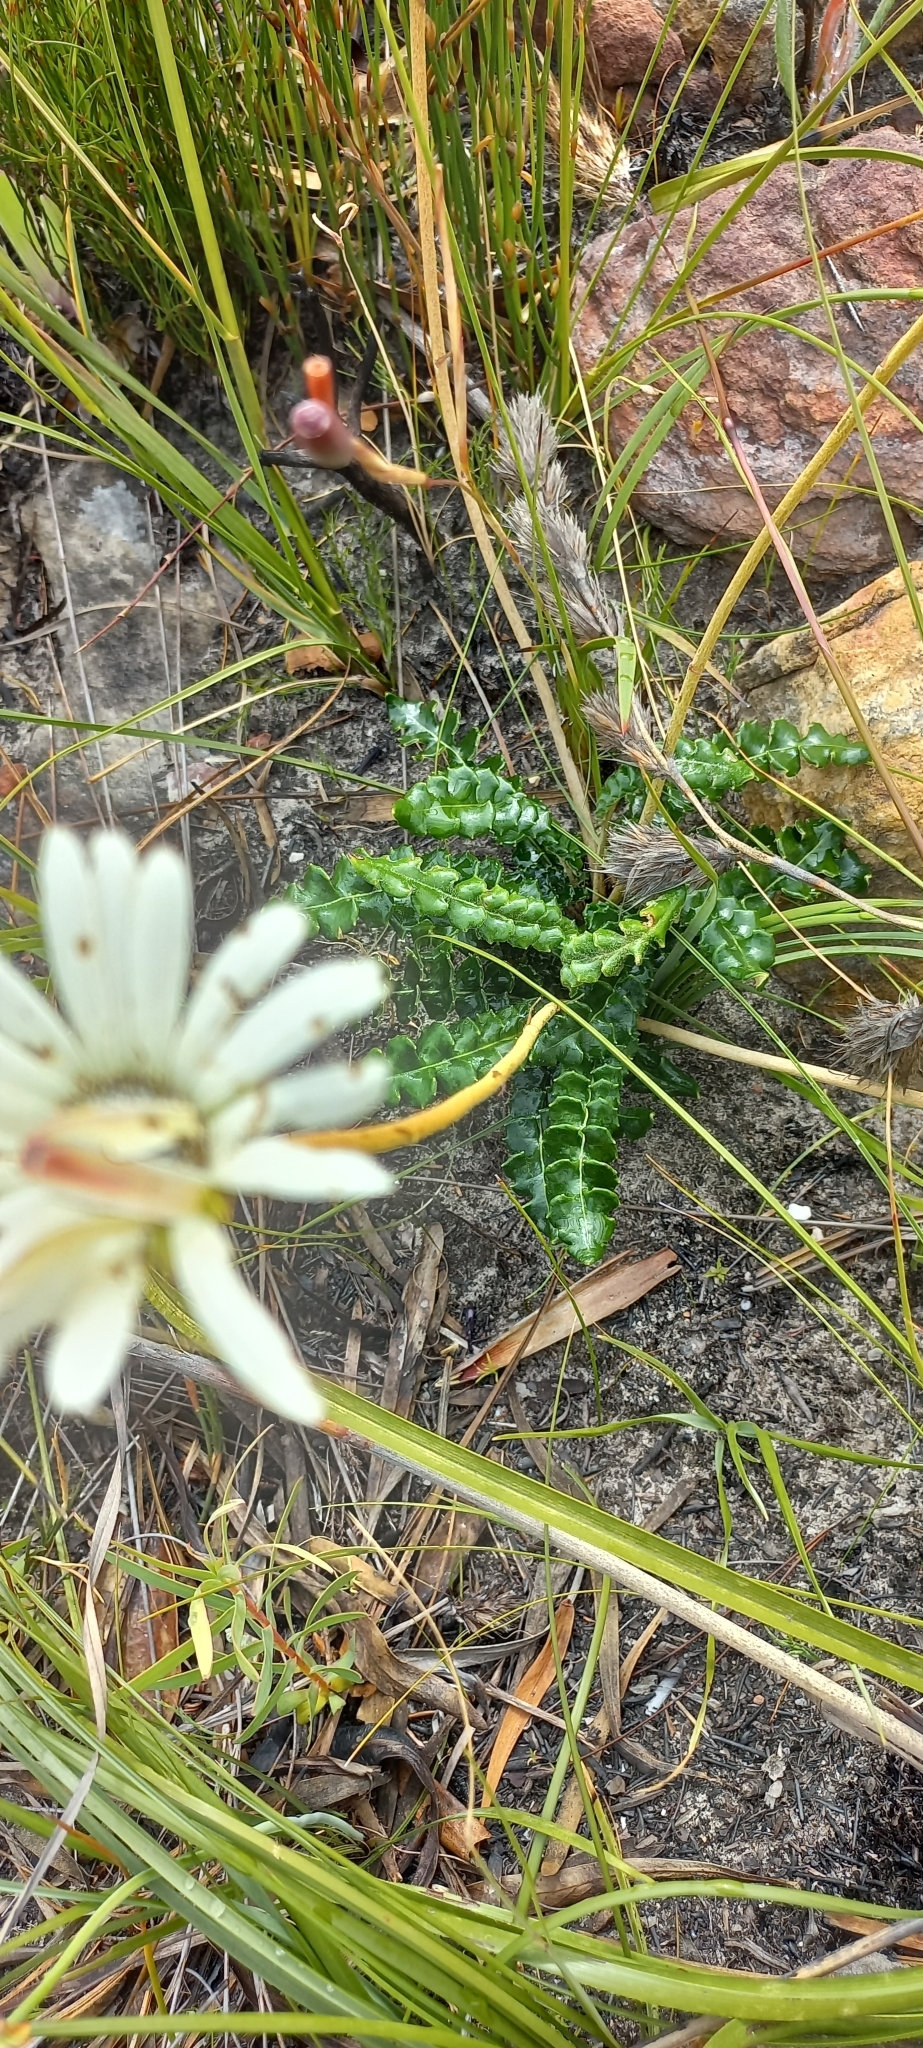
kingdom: Plantae
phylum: Tracheophyta
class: Magnoliopsida
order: Asterales
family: Asteraceae
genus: Gerbera
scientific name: Gerbera linnaei
